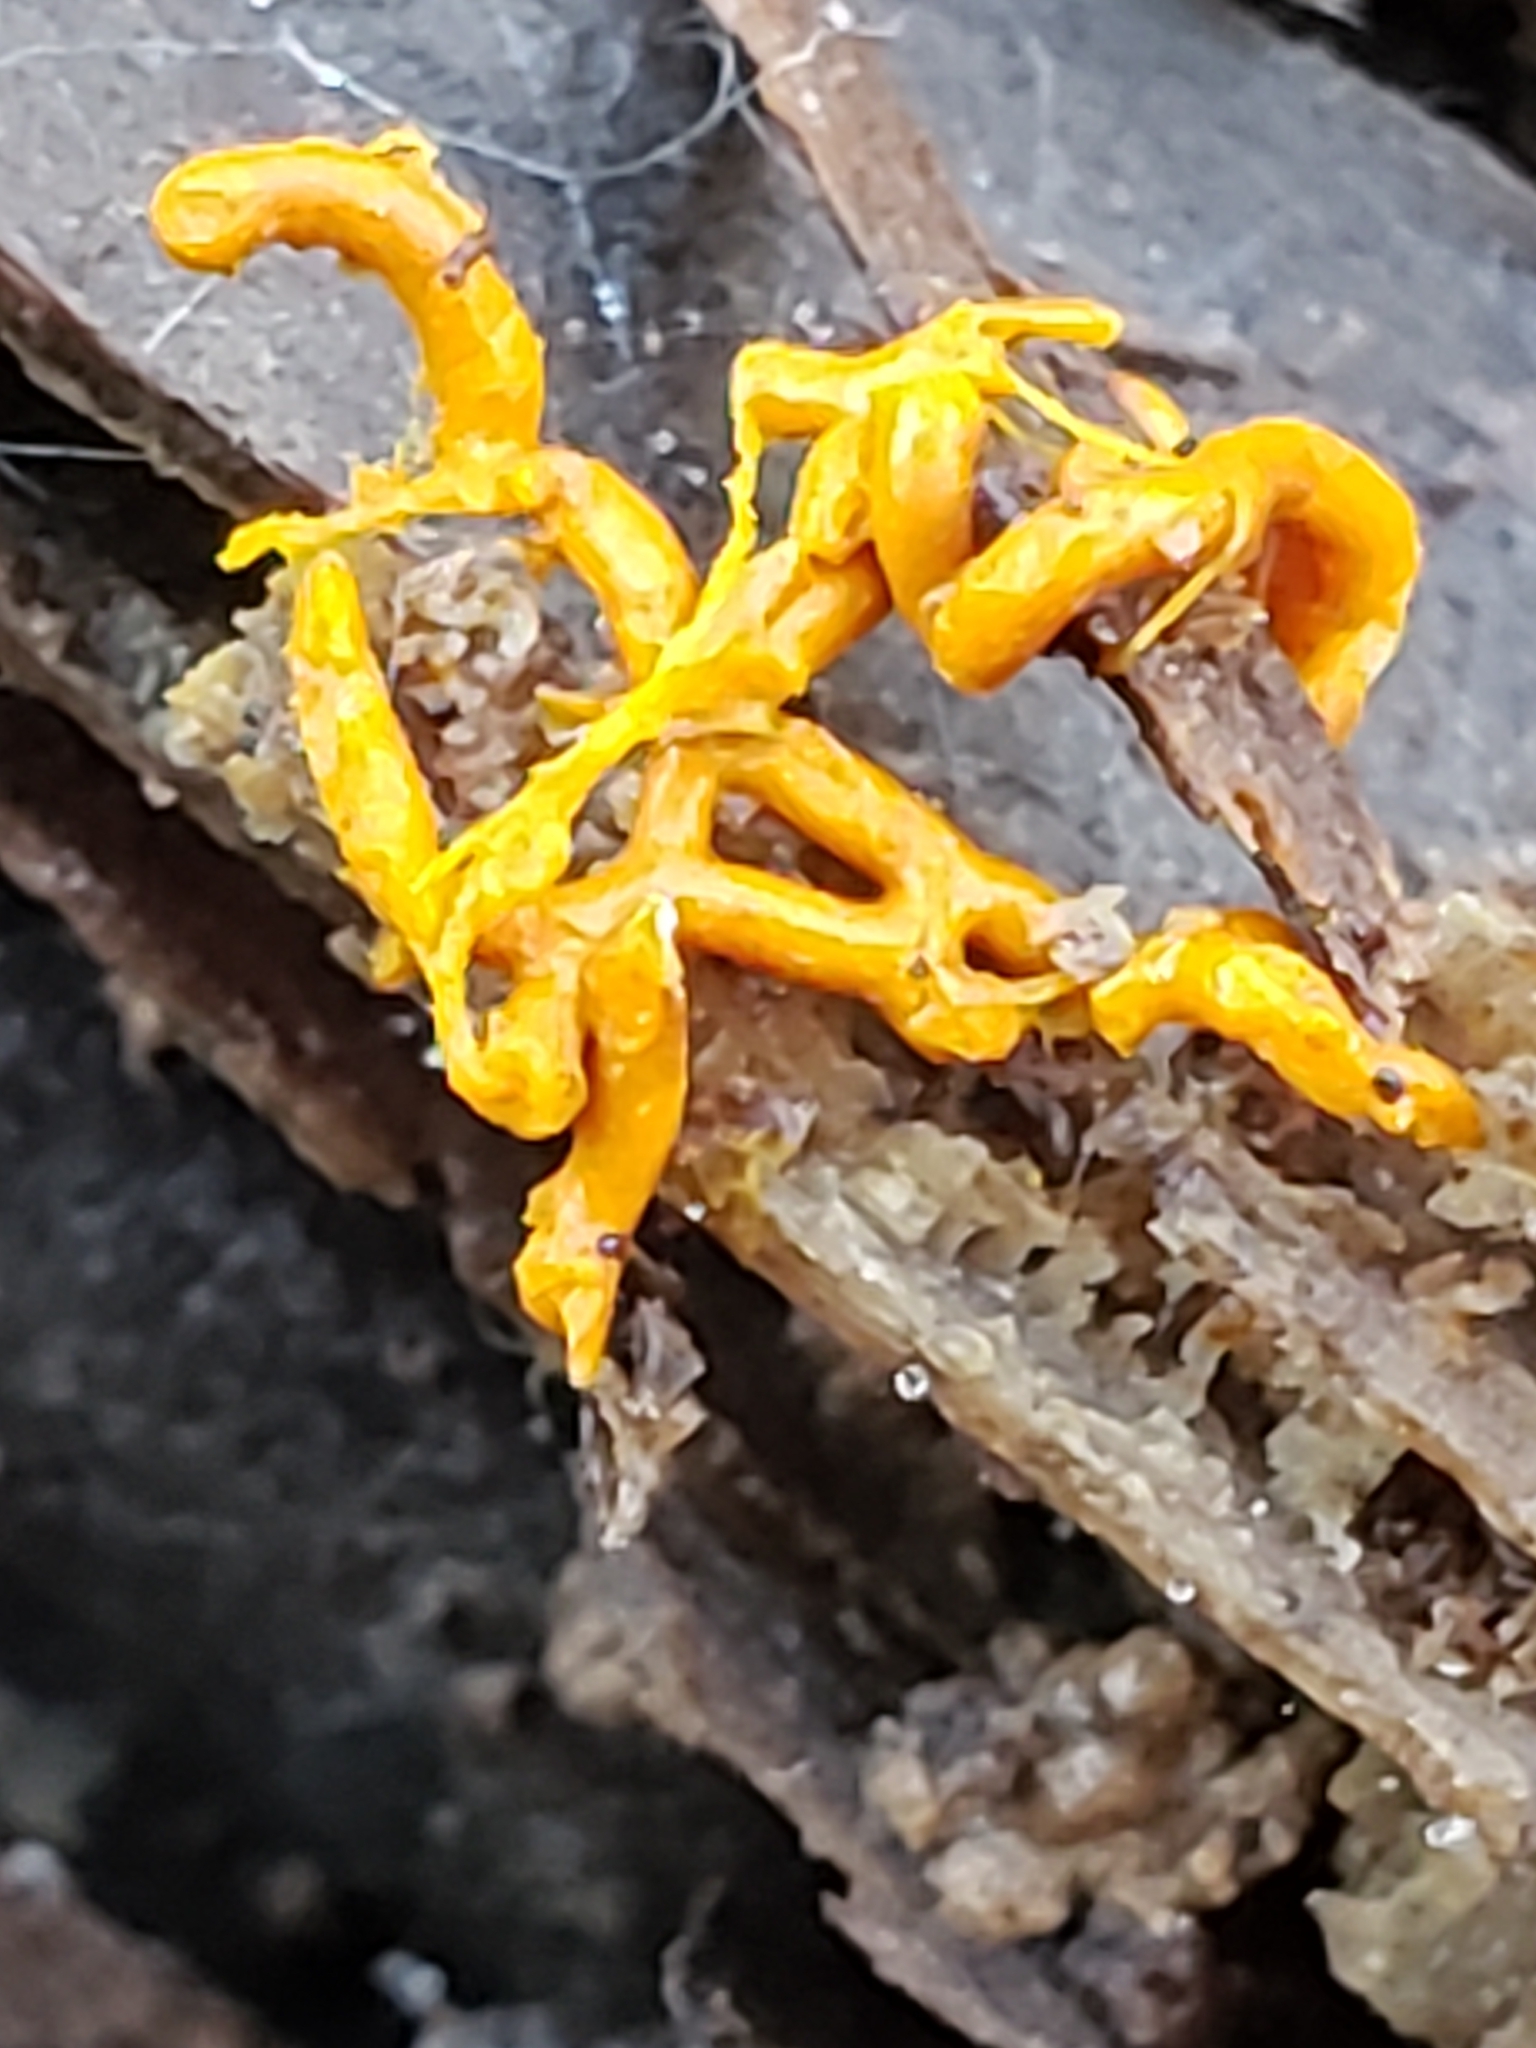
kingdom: Protozoa
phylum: Mycetozoa
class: Myxomycetes
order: Trichiales
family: Arcyriaceae
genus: Hemitrichia
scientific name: Hemitrichia serpula
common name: Pretzel slime mold
